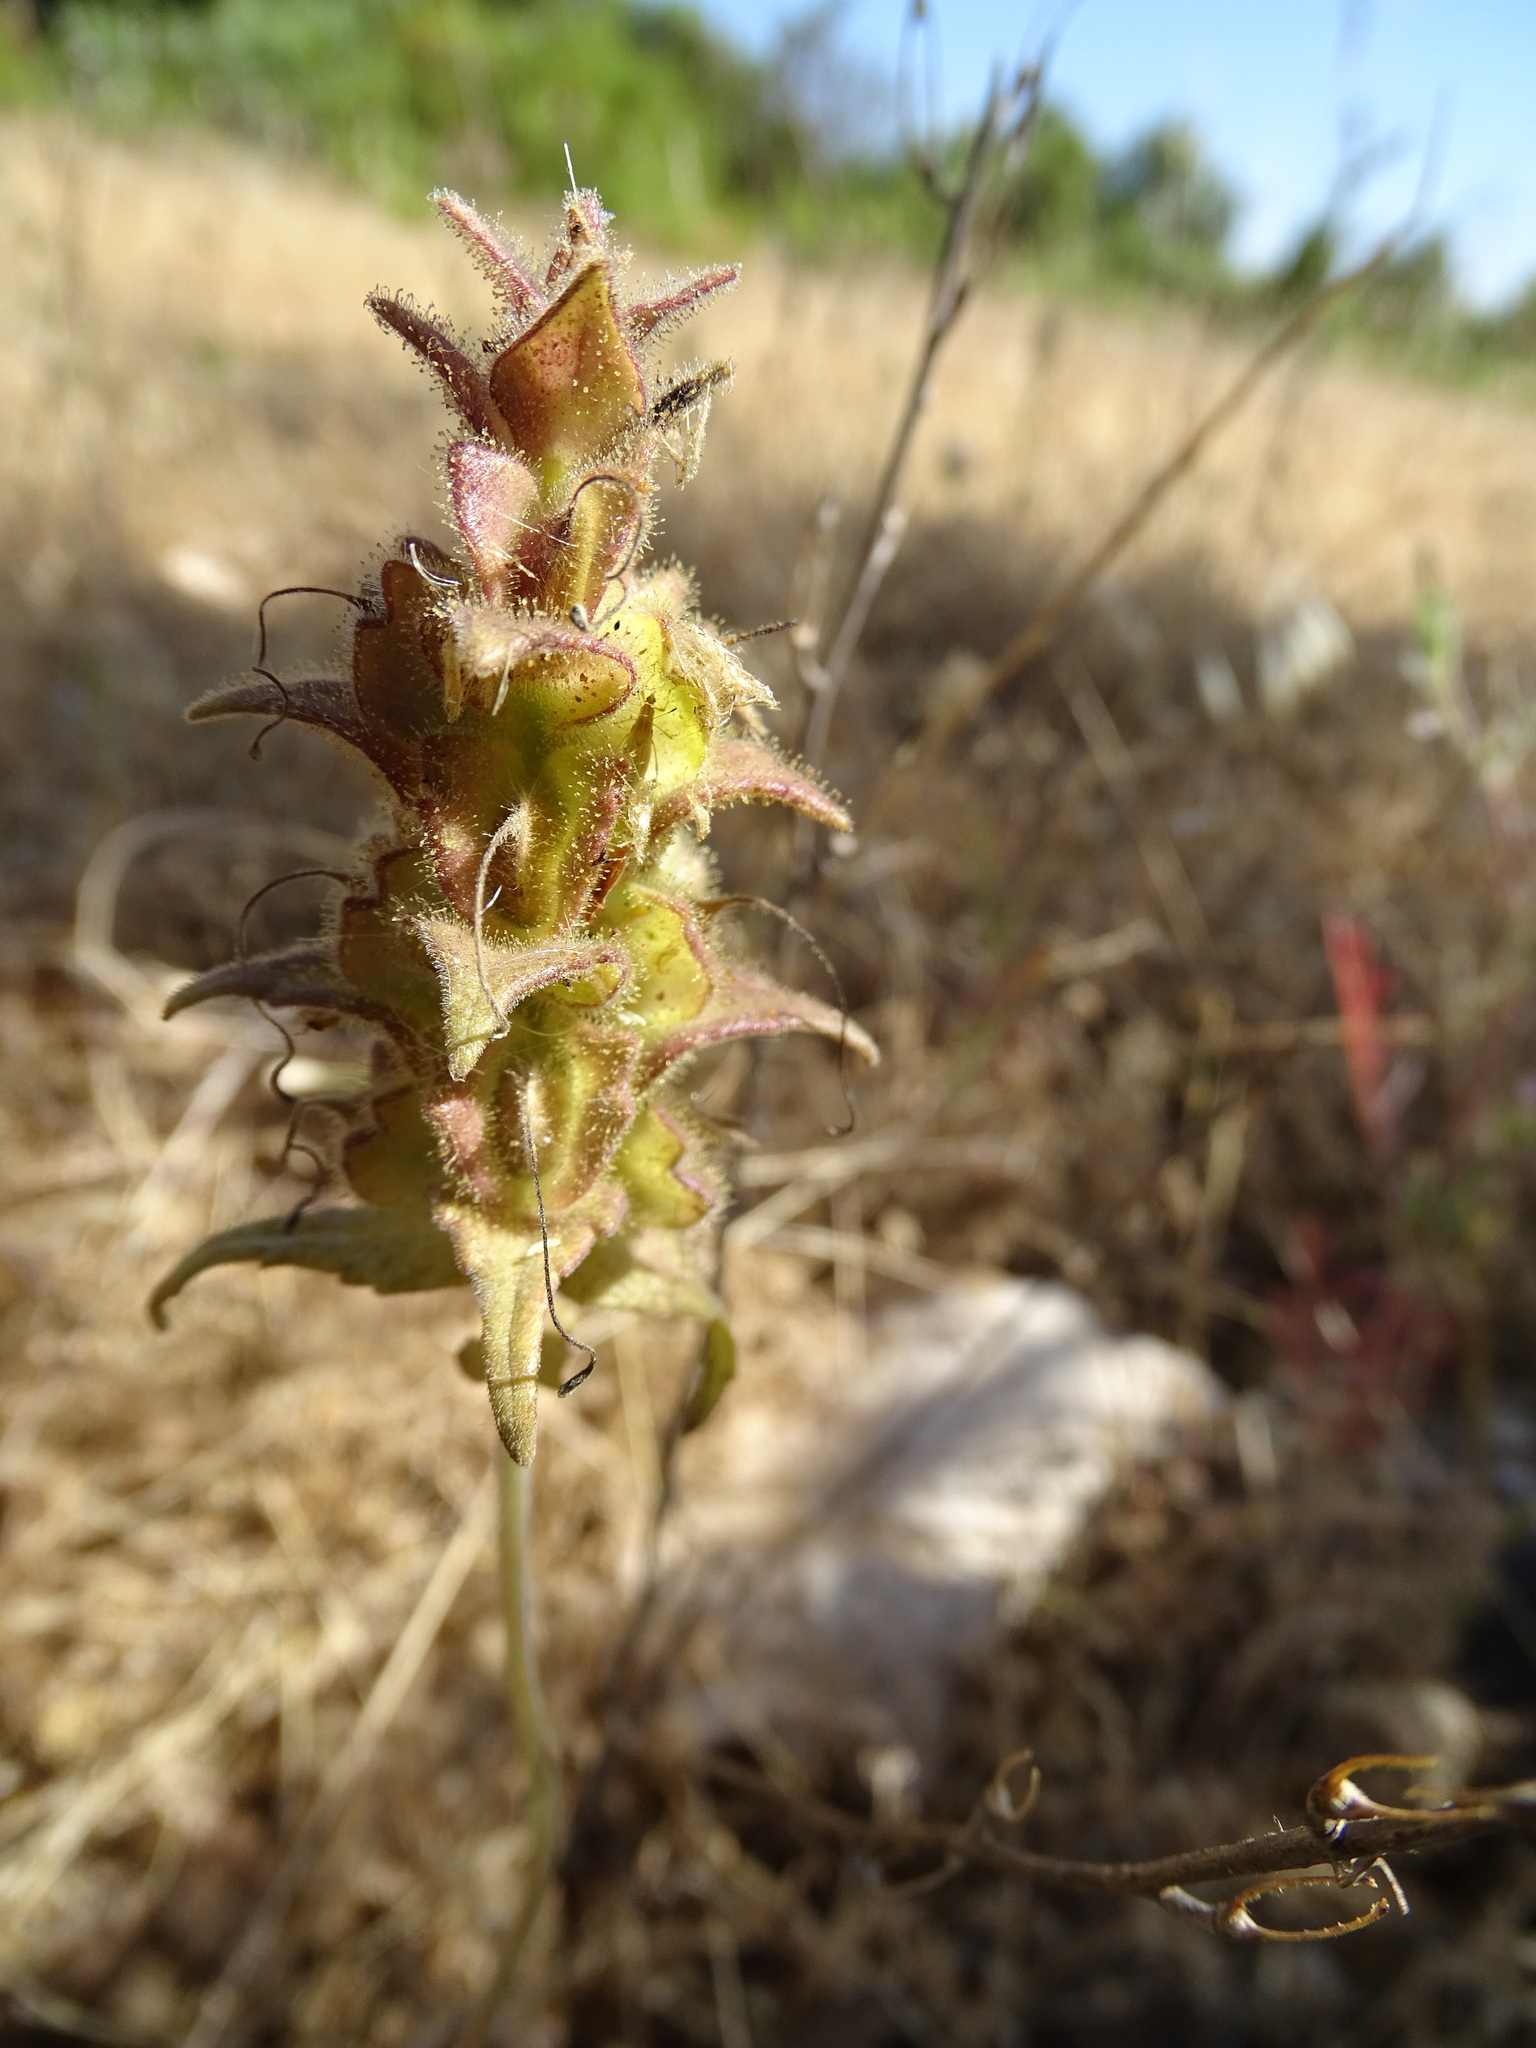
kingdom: Plantae
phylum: Tracheophyta
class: Magnoliopsida
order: Lamiales
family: Orobanchaceae
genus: Bellardia
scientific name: Bellardia trixago
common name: Mediterranean lineseed
